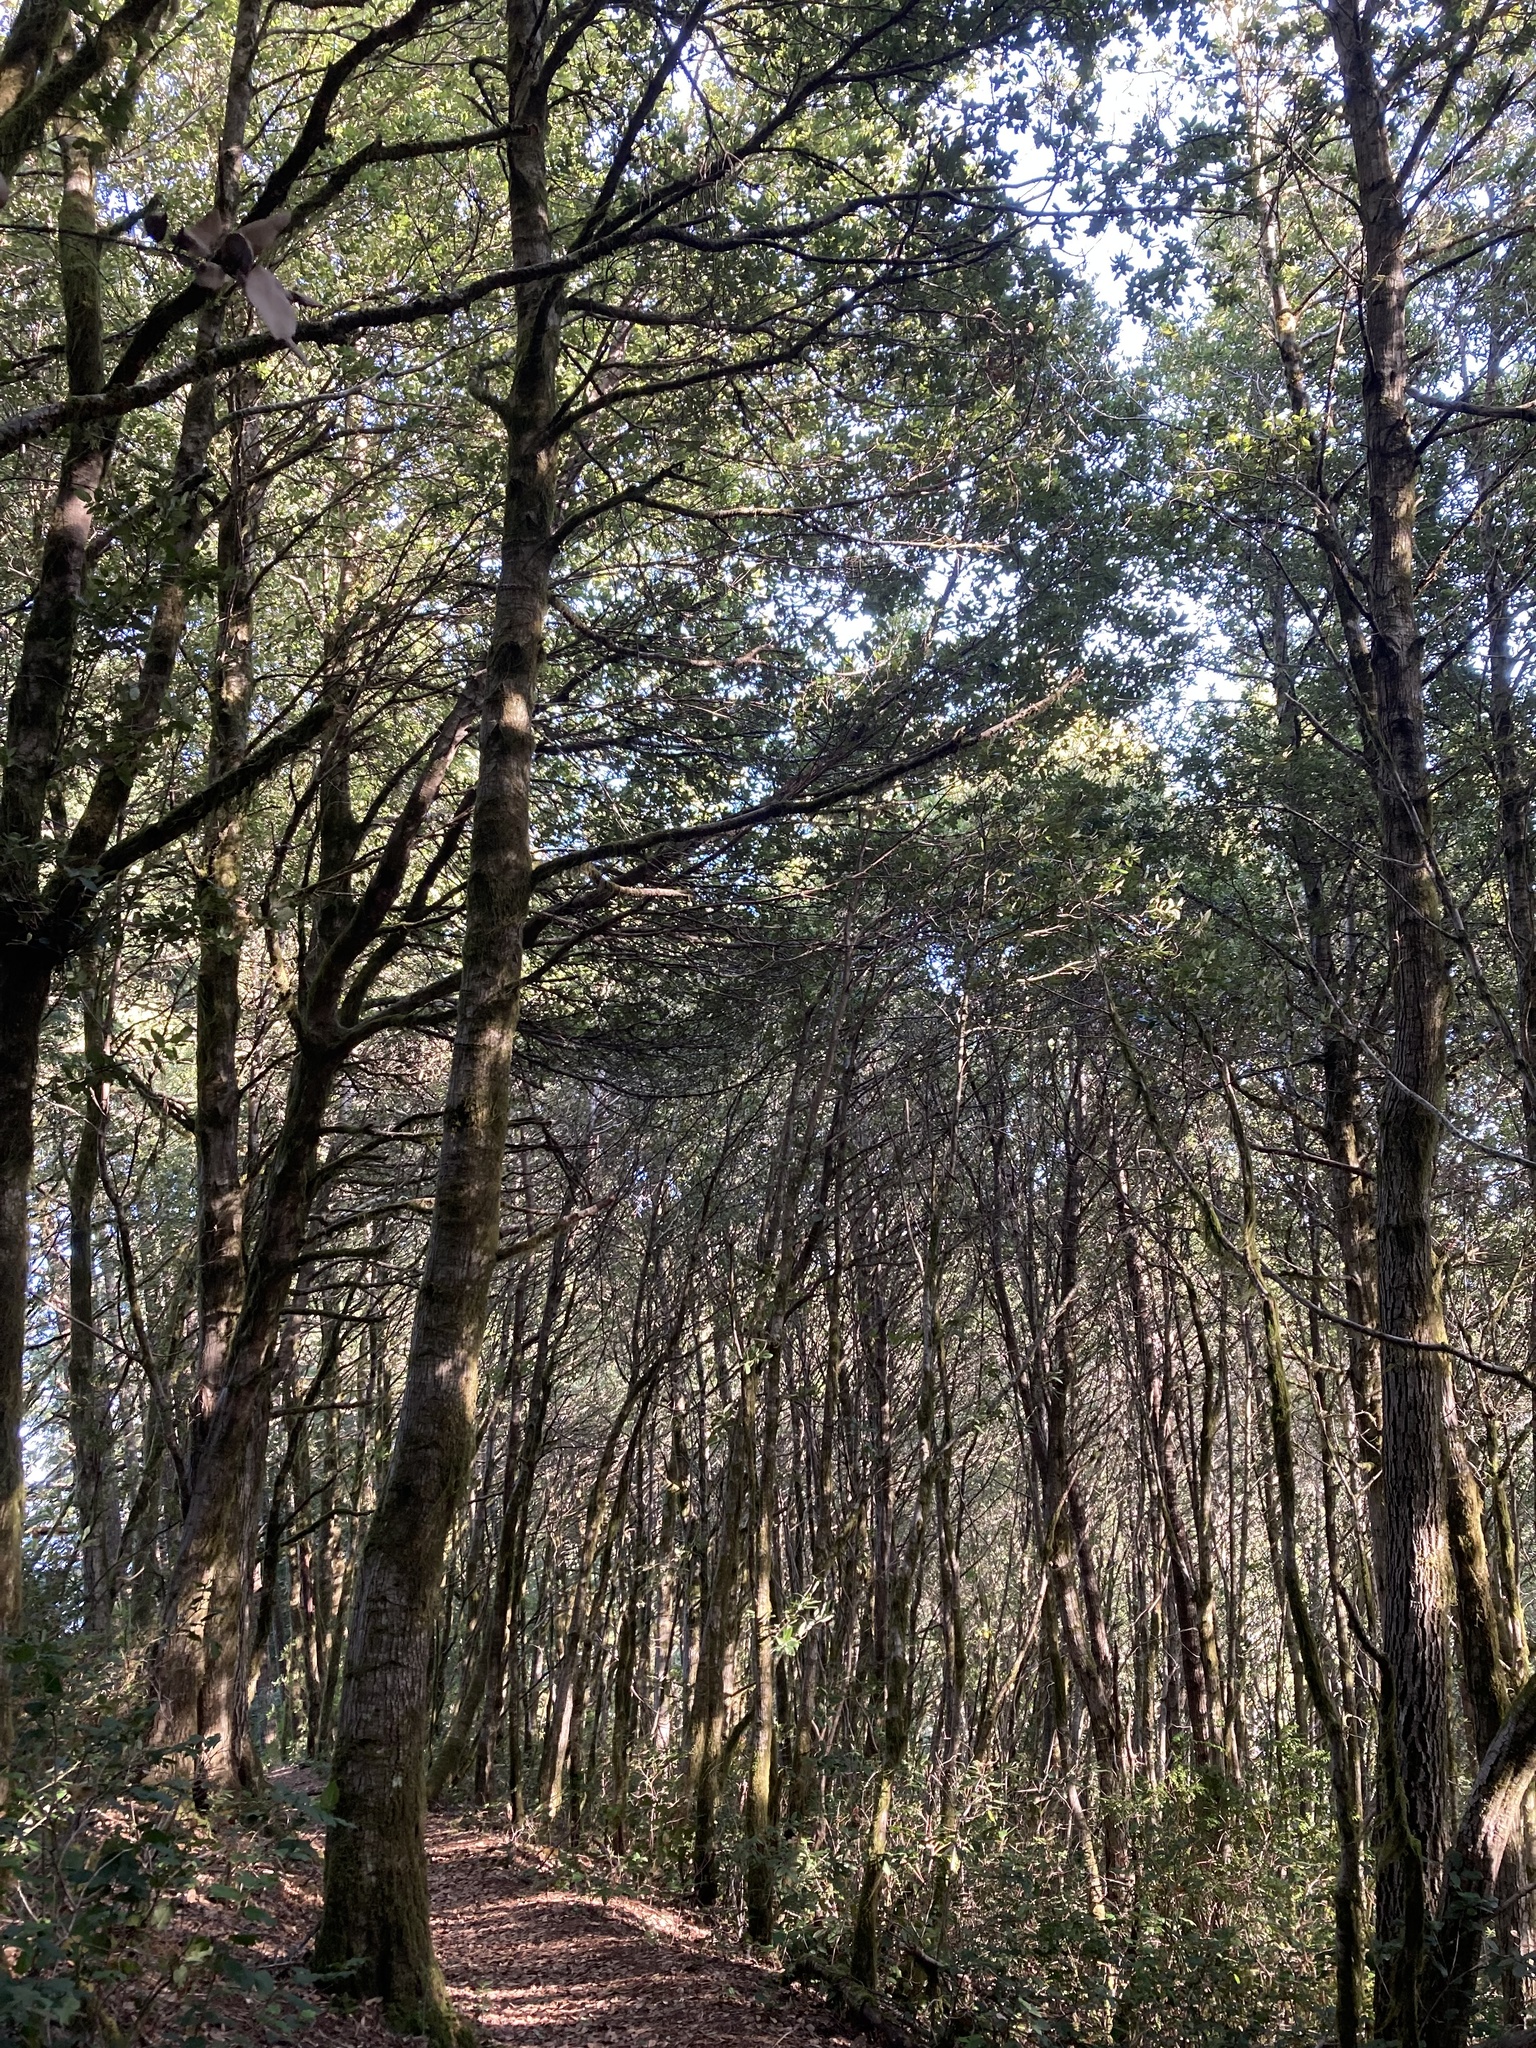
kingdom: Plantae
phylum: Tracheophyta
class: Magnoliopsida
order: Fagales
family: Fagaceae
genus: Notholithocarpus
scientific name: Notholithocarpus densiflorus
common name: Tan bark oak
